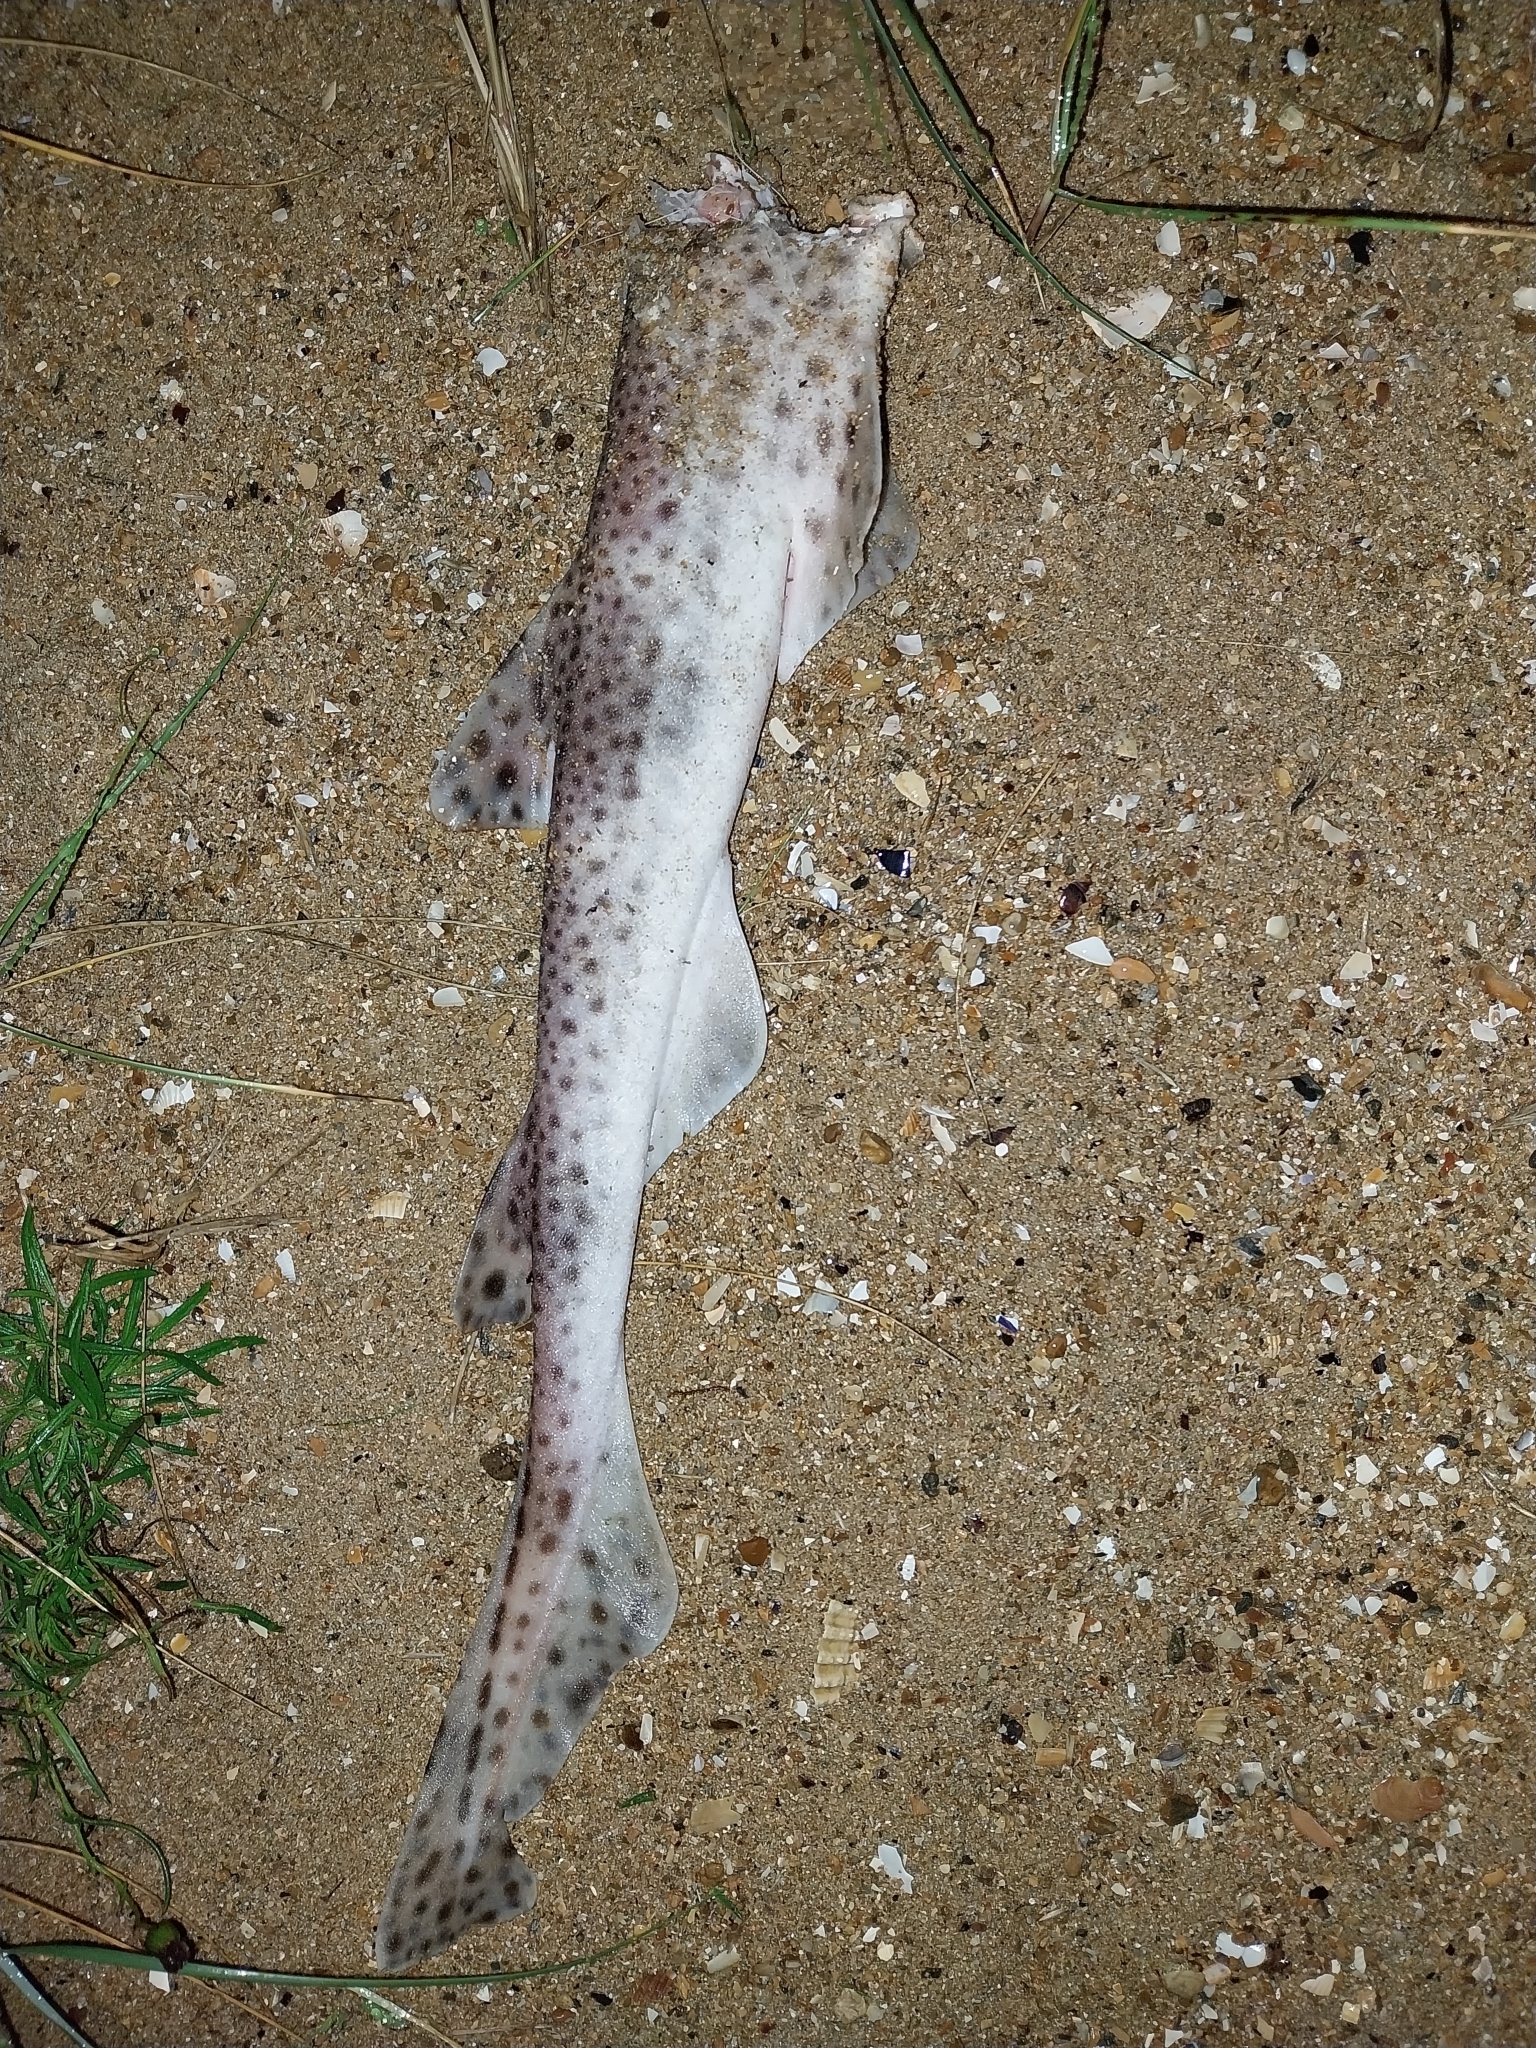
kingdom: Animalia
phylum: Chordata
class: Elasmobranchii
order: Carcharhiniformes
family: Scyliorhinidae
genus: Scyliorhinus
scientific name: Scyliorhinus canicula
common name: Lesser spotted dogfish
